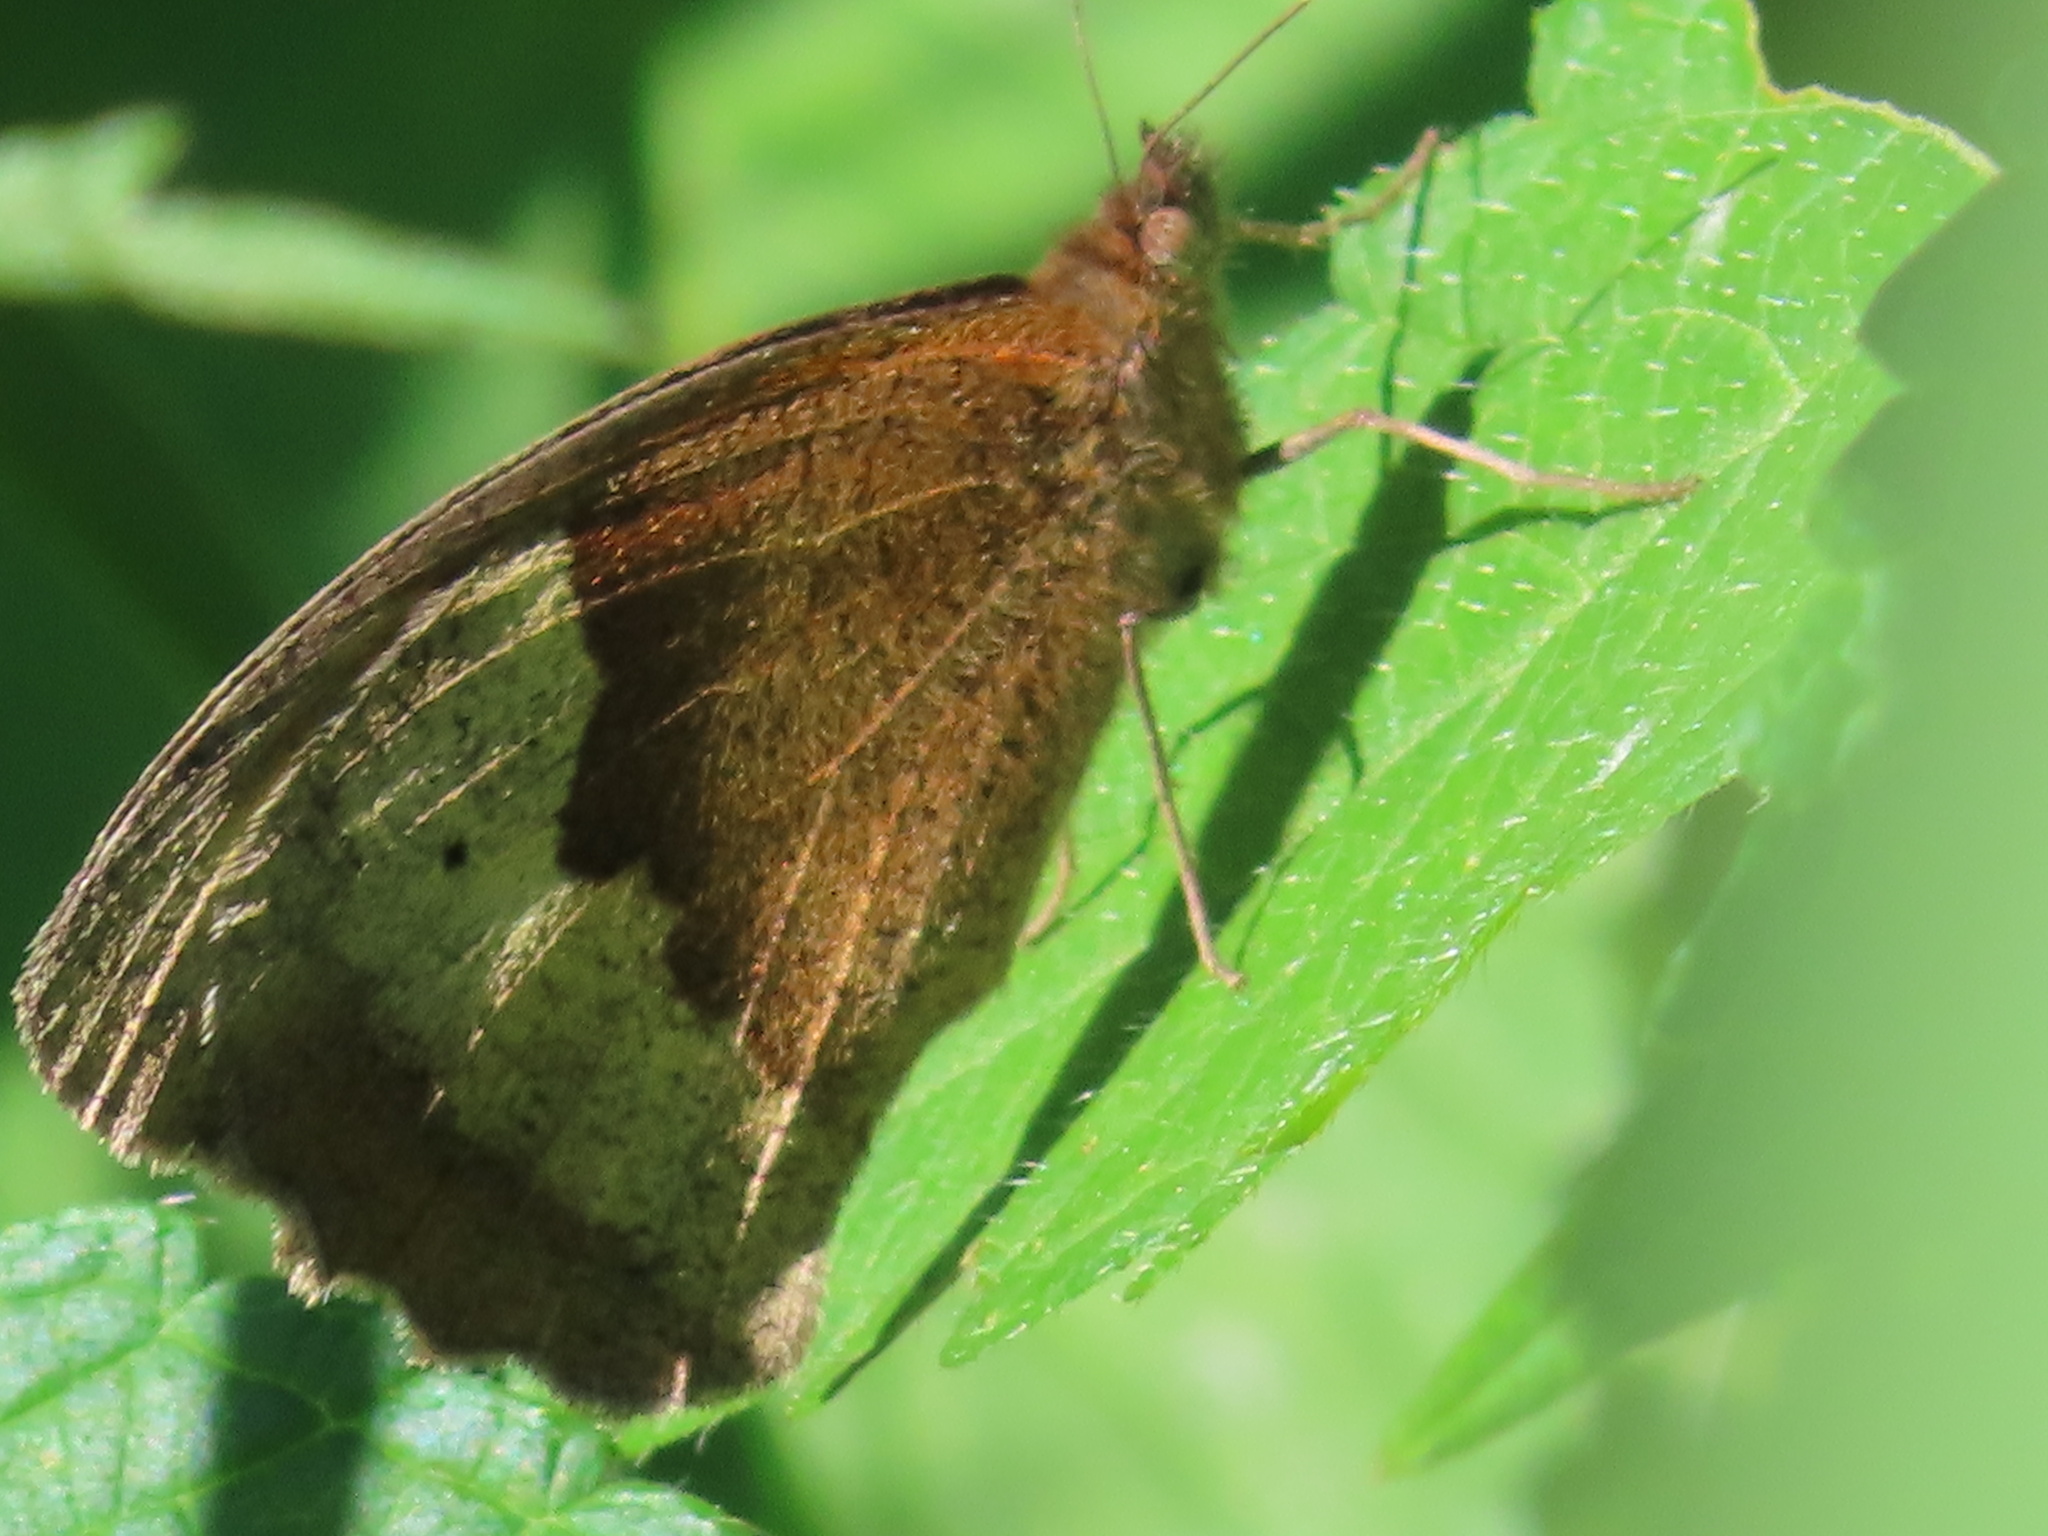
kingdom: Animalia
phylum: Arthropoda
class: Insecta
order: Lepidoptera
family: Nymphalidae
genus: Maniola
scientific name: Maniola jurtina
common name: Meadow brown
